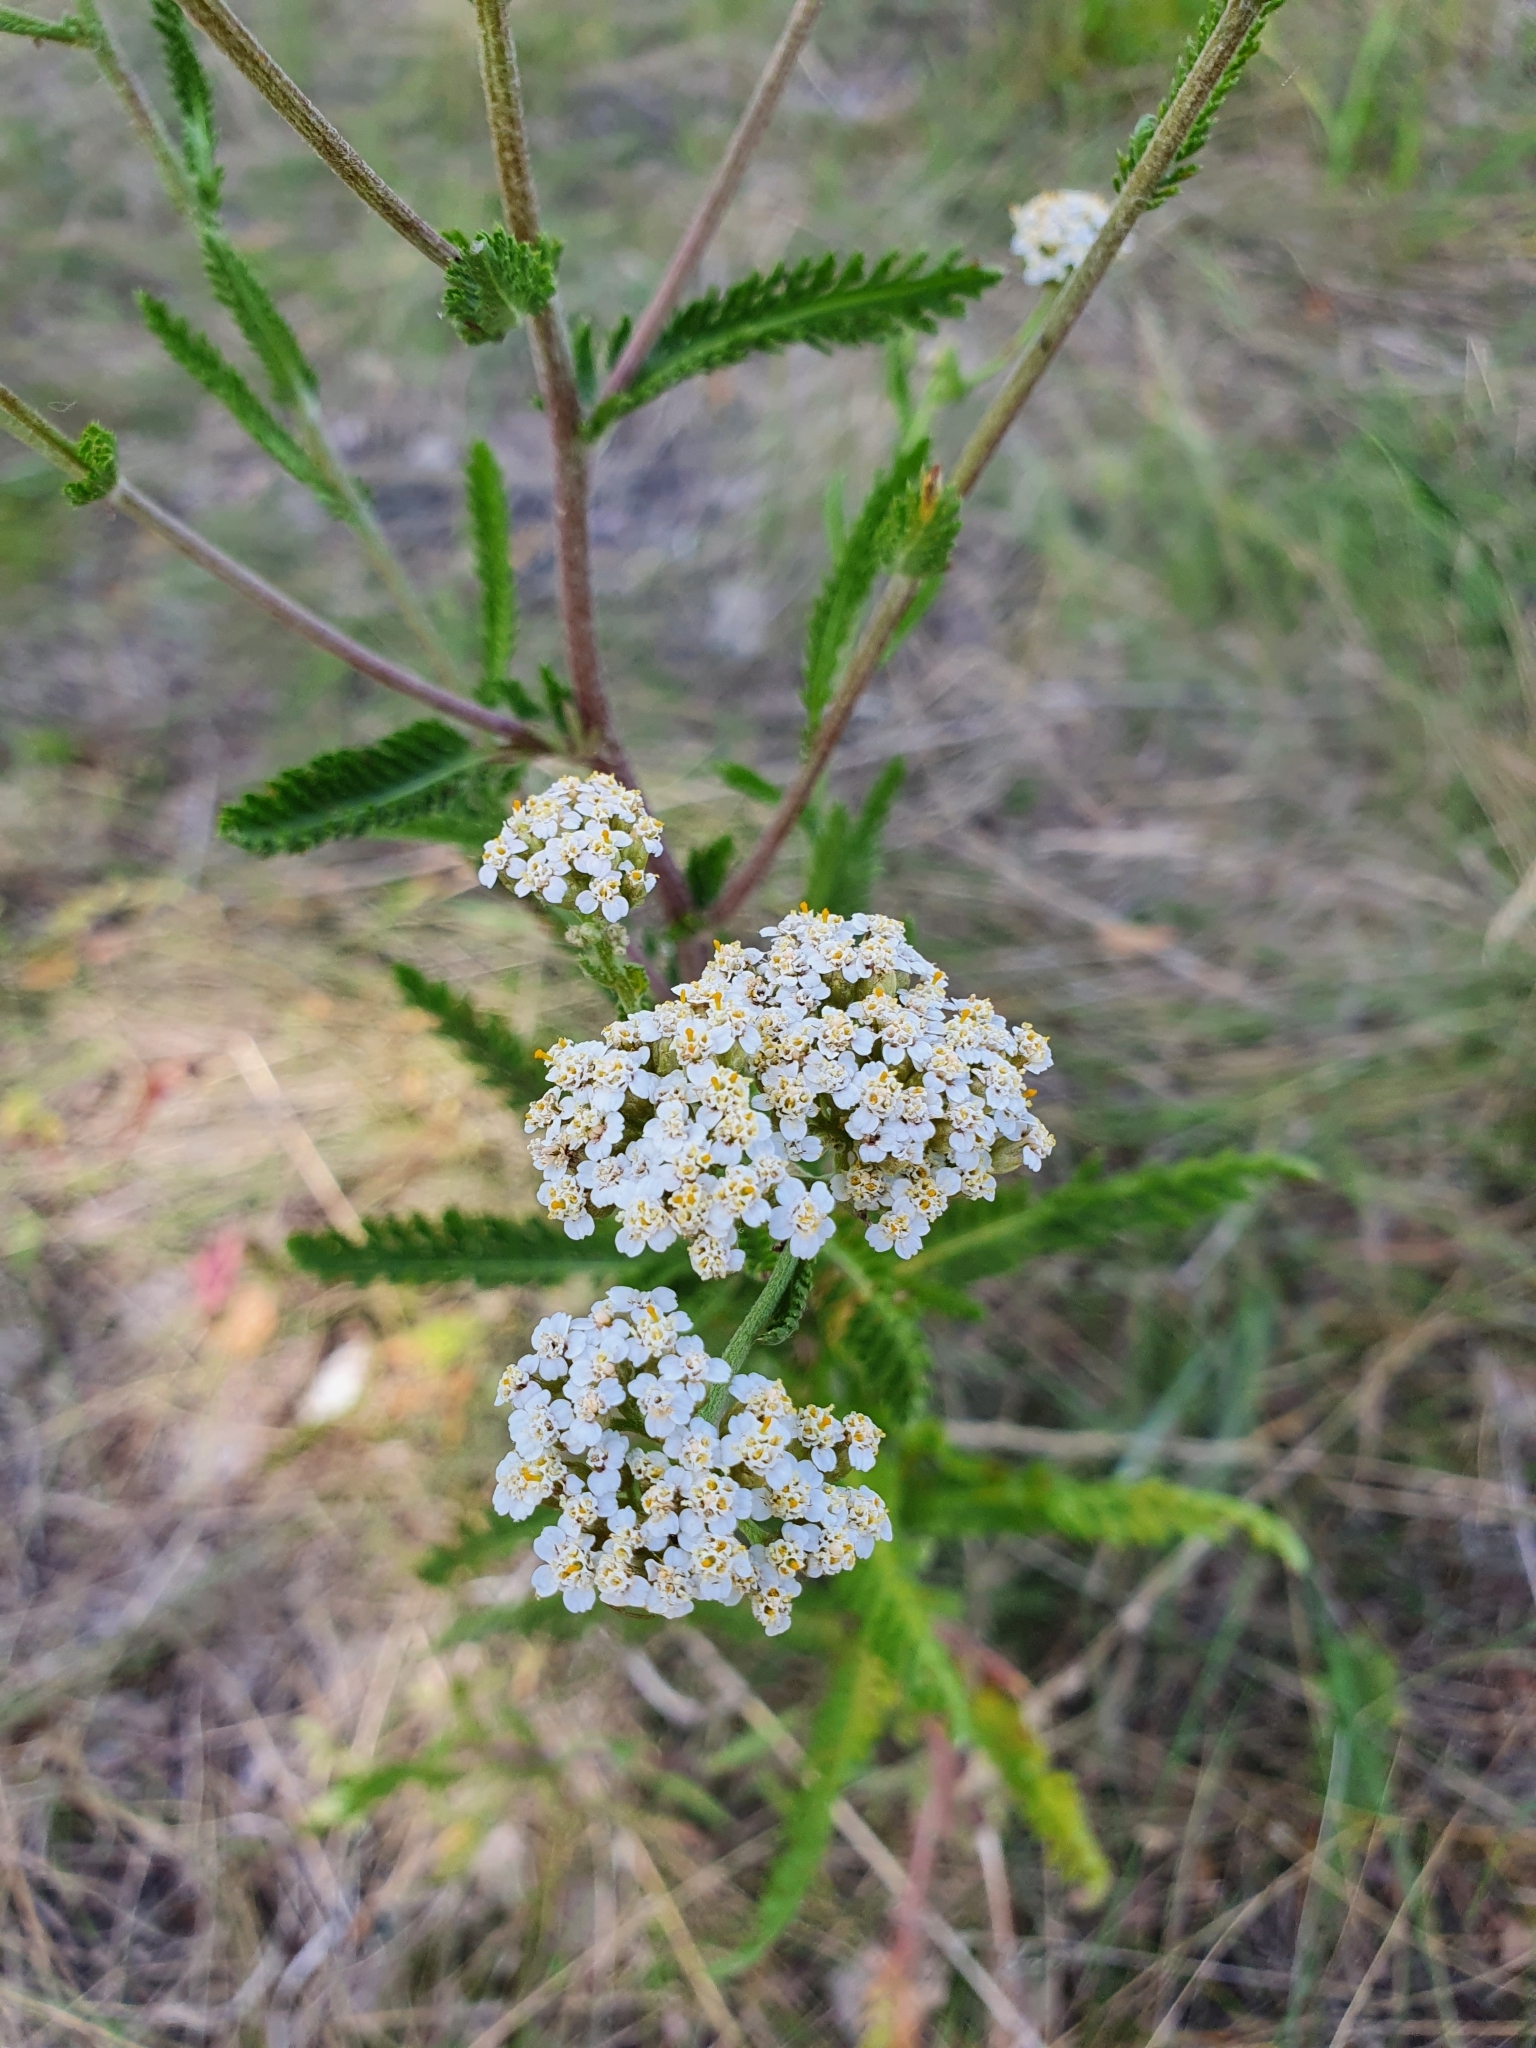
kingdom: Plantae
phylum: Tracheophyta
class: Magnoliopsida
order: Asterales
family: Asteraceae
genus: Achillea
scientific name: Achillea millefolium
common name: Yarrow
